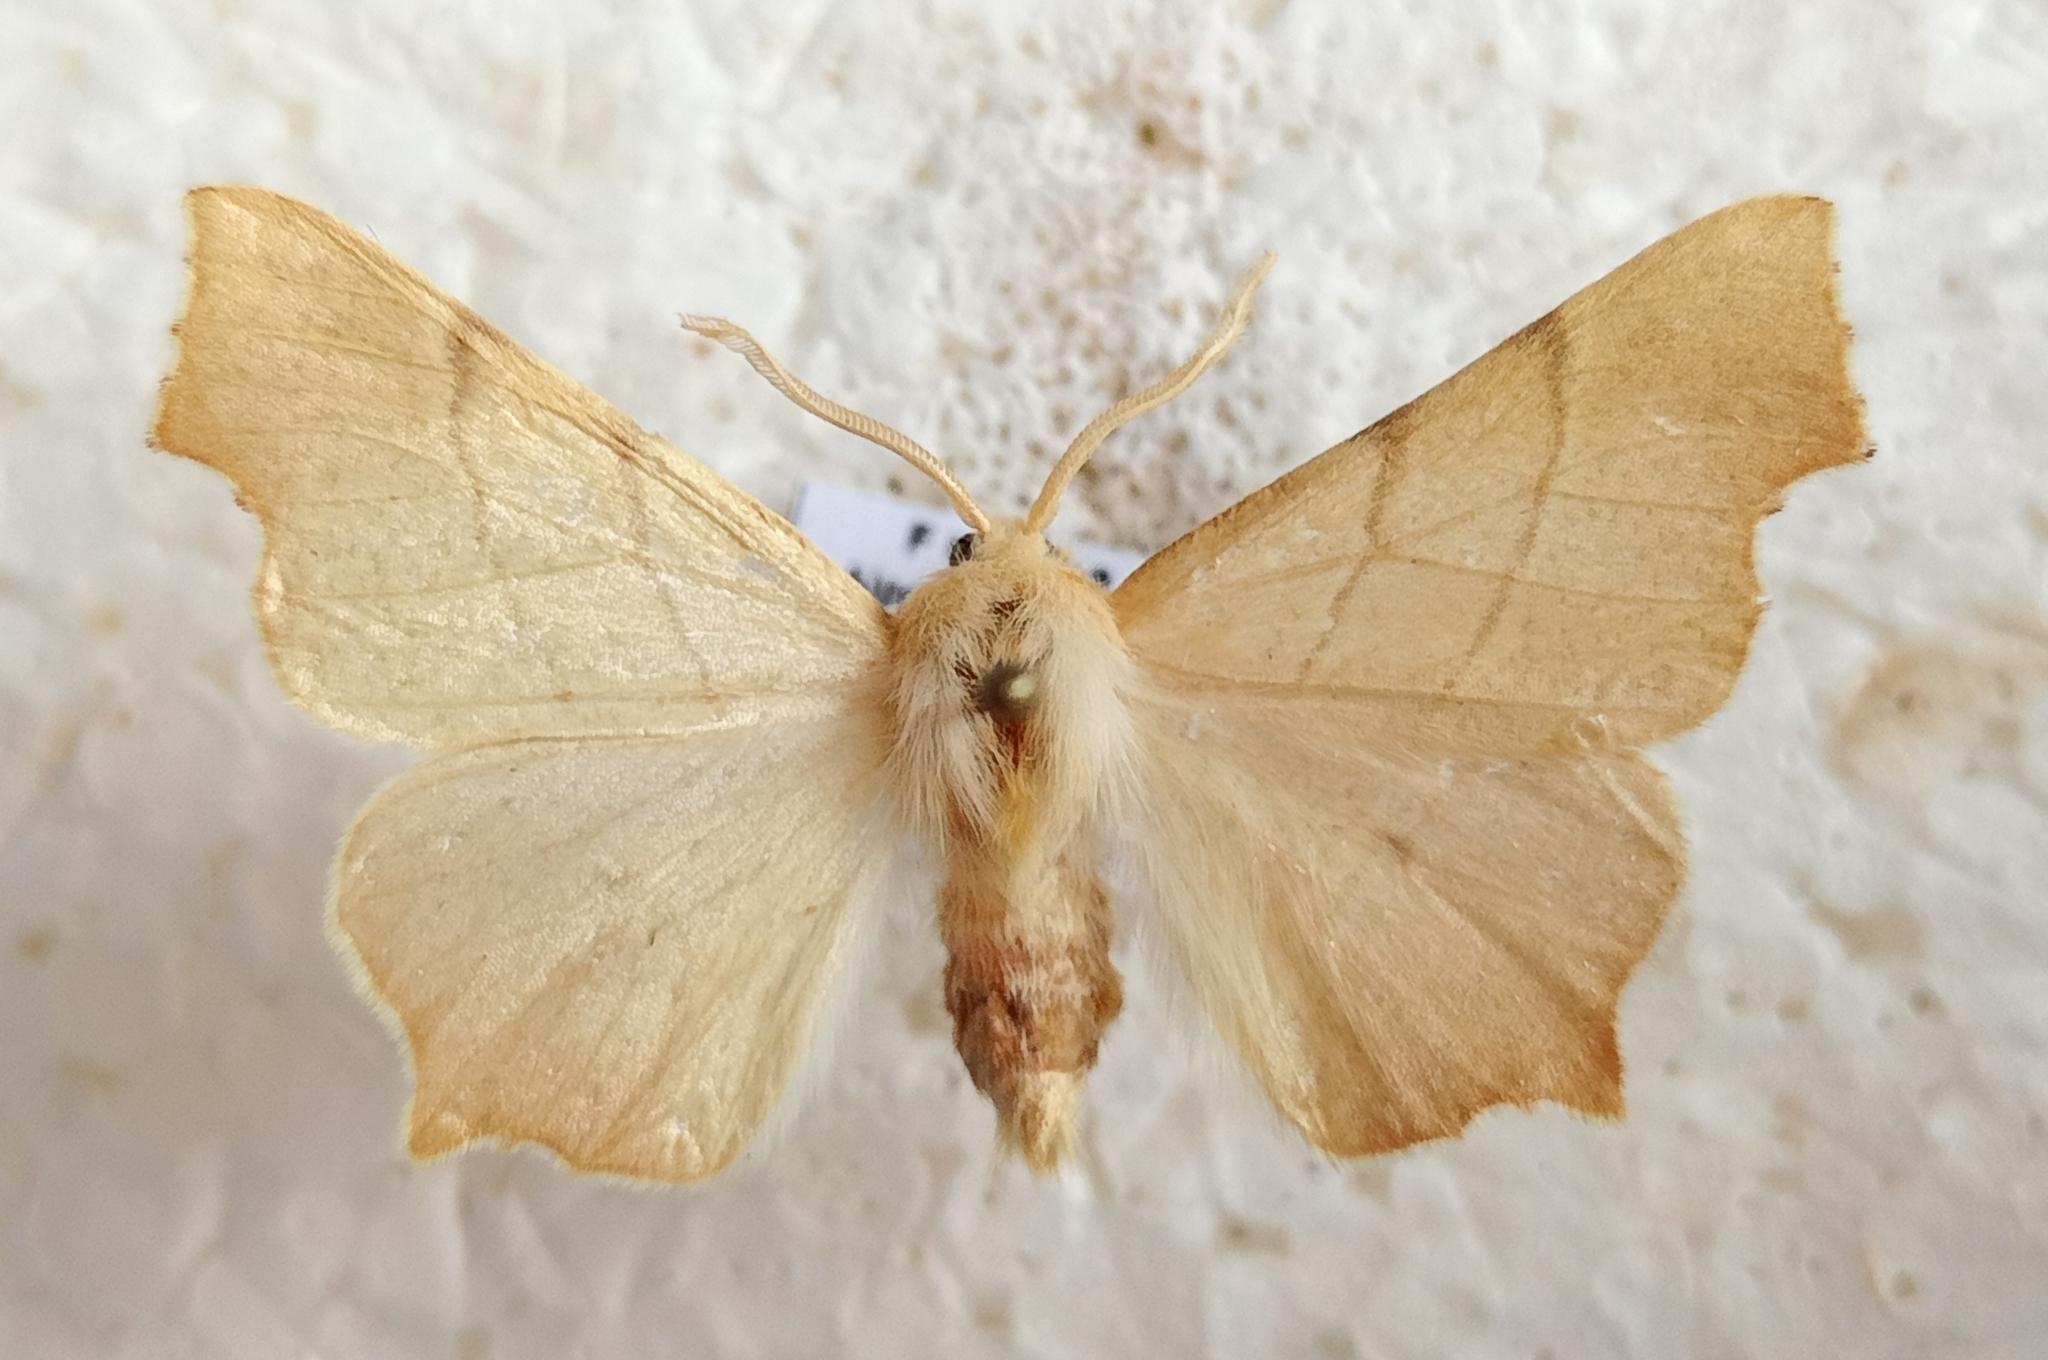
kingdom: Animalia
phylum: Arthropoda
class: Insecta
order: Lepidoptera
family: Geometridae
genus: Ennomos
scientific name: Ennomos quercaria
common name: Clouded august thorn
